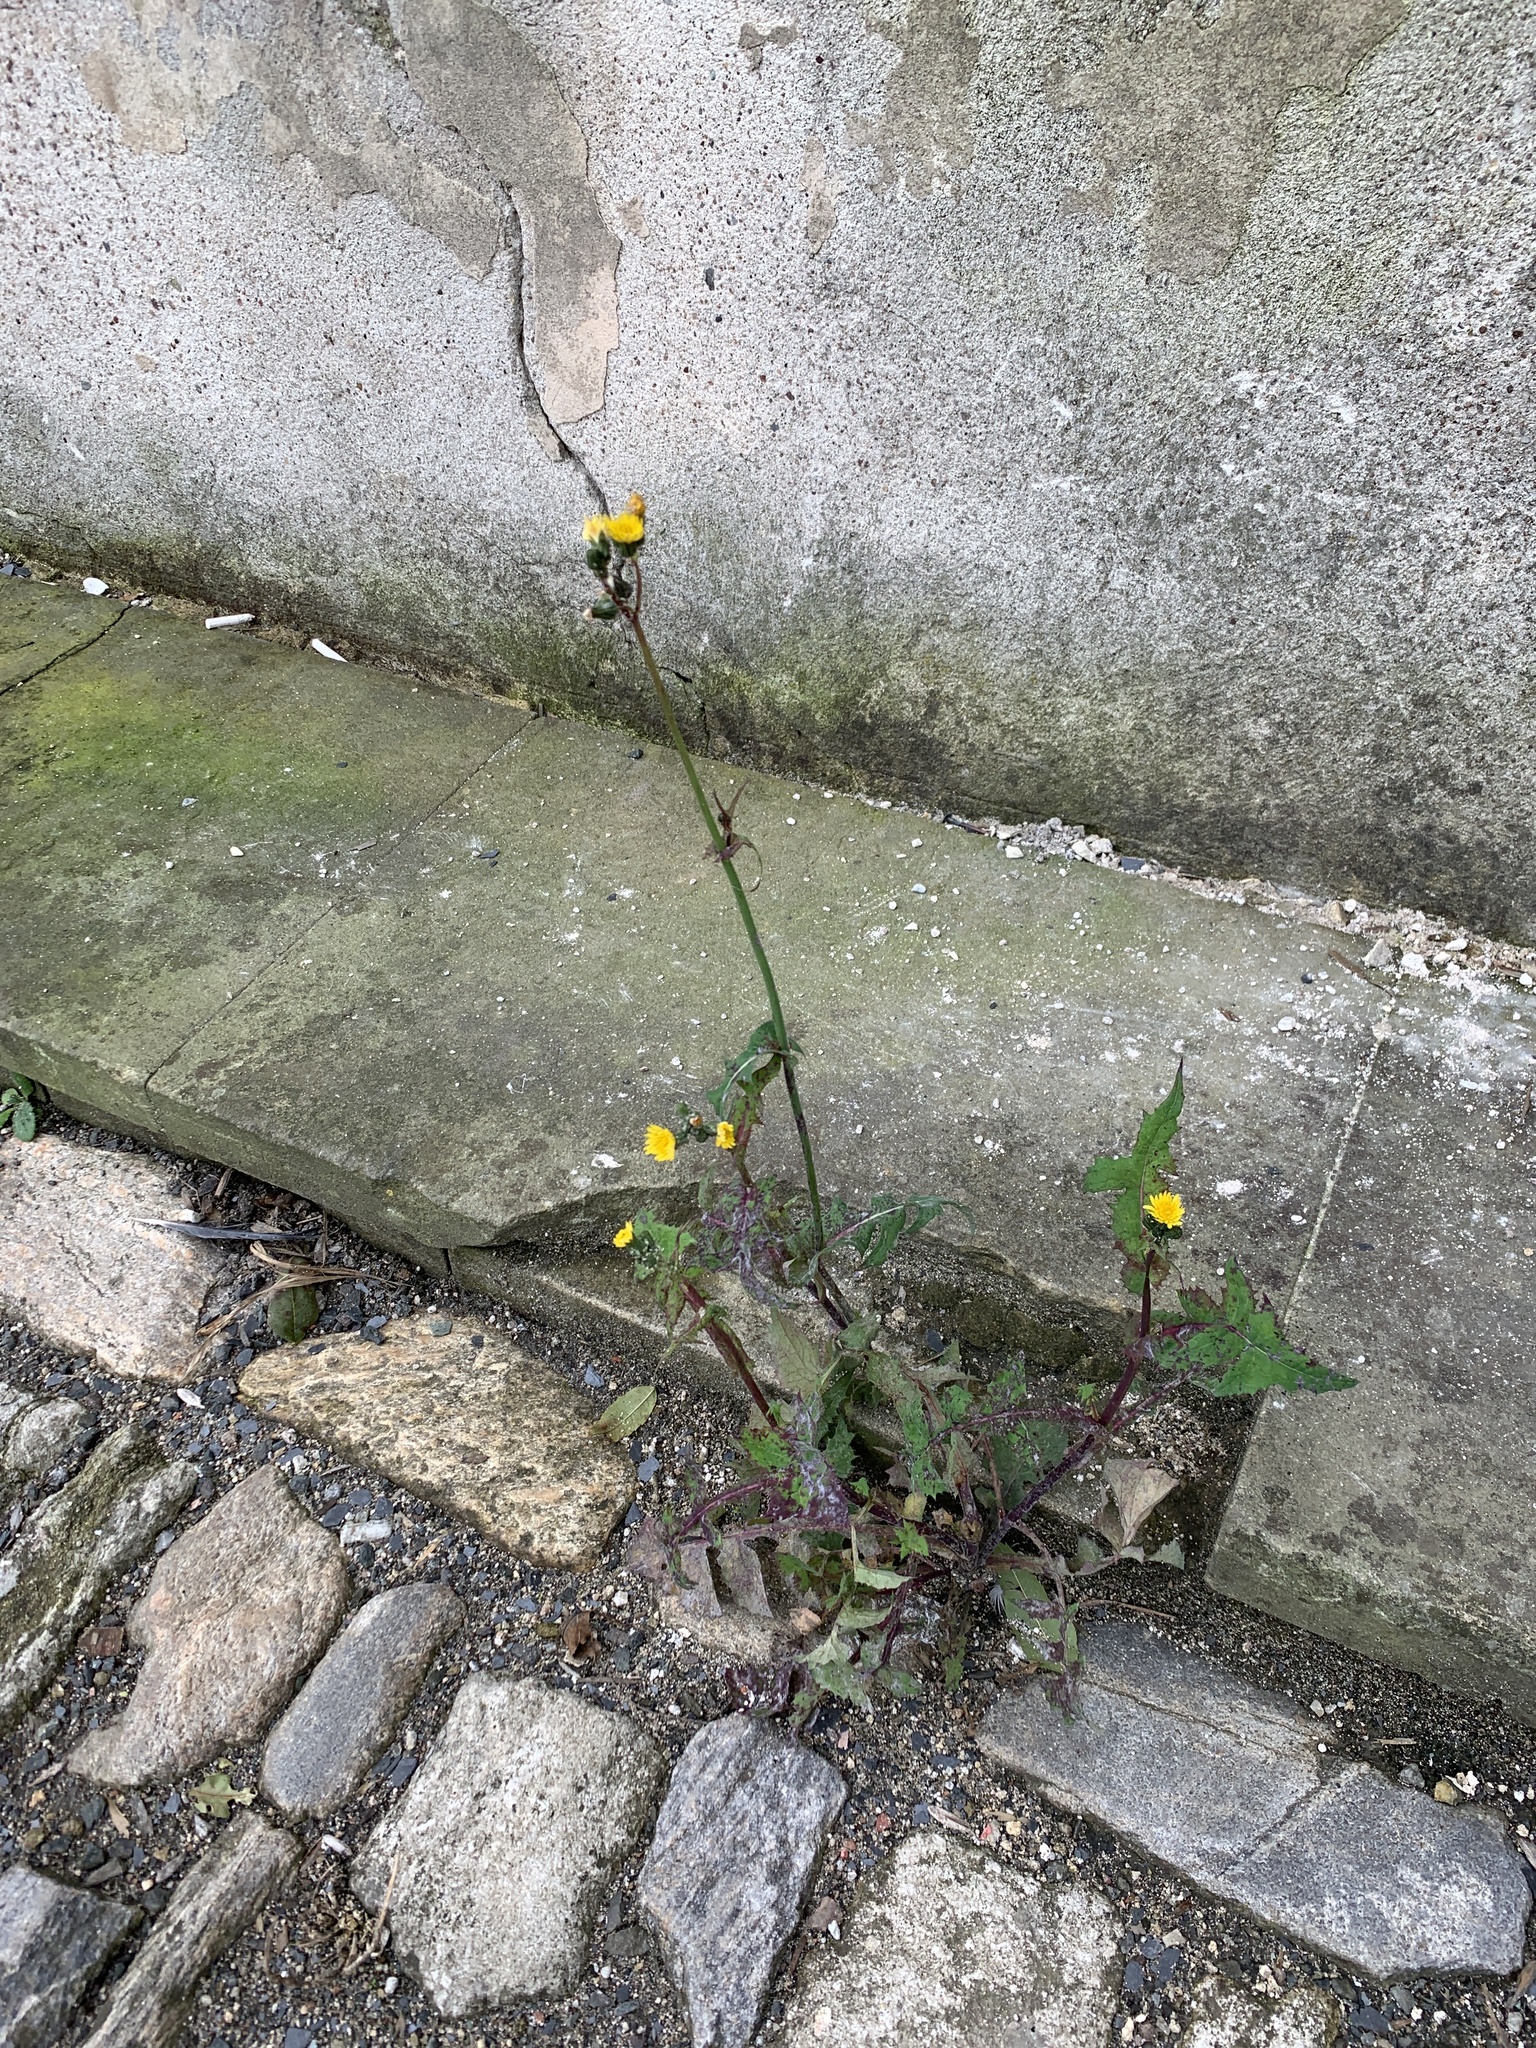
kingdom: Plantae
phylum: Tracheophyta
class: Magnoliopsida
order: Asterales
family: Asteraceae
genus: Sonchus
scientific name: Sonchus oleraceus
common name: Common sowthistle
